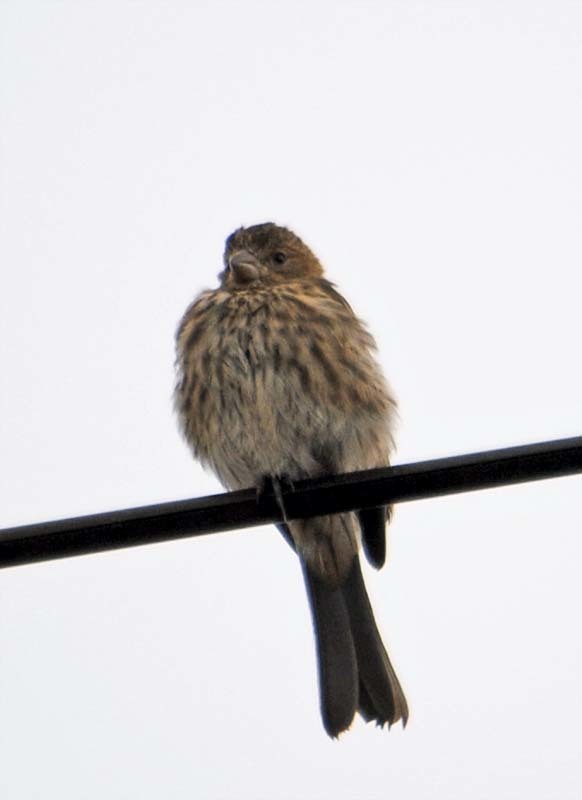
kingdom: Animalia
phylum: Chordata
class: Aves
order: Passeriformes
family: Fringillidae
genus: Haemorhous
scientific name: Haemorhous mexicanus
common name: House finch
